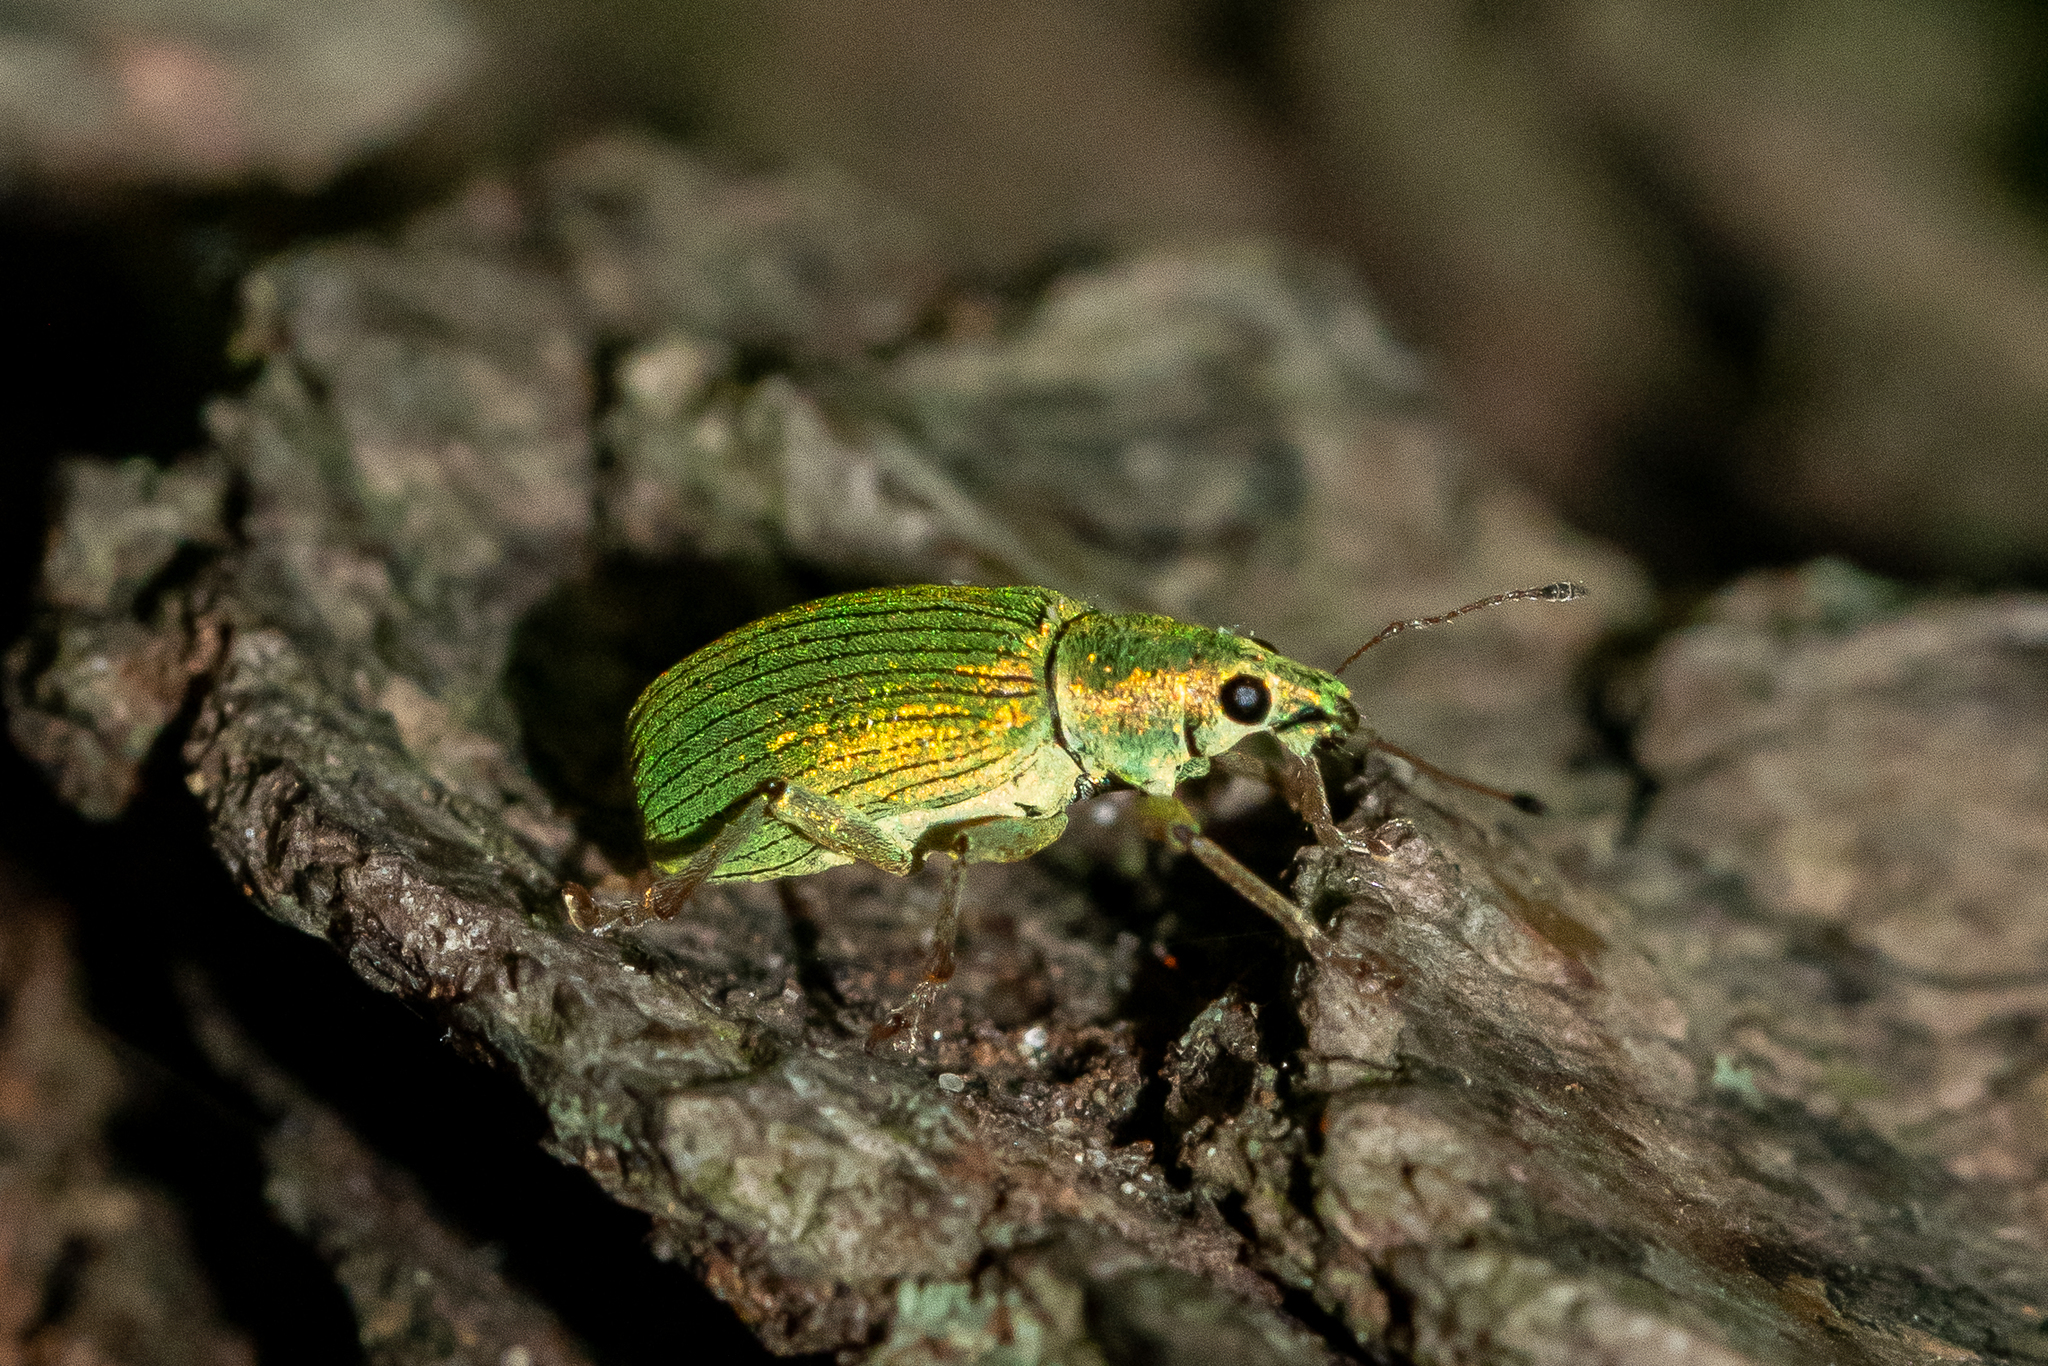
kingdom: Animalia
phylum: Arthropoda
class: Insecta
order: Coleoptera
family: Curculionidae
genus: Polydrusus
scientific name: Polydrusus formosus
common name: Weevil
